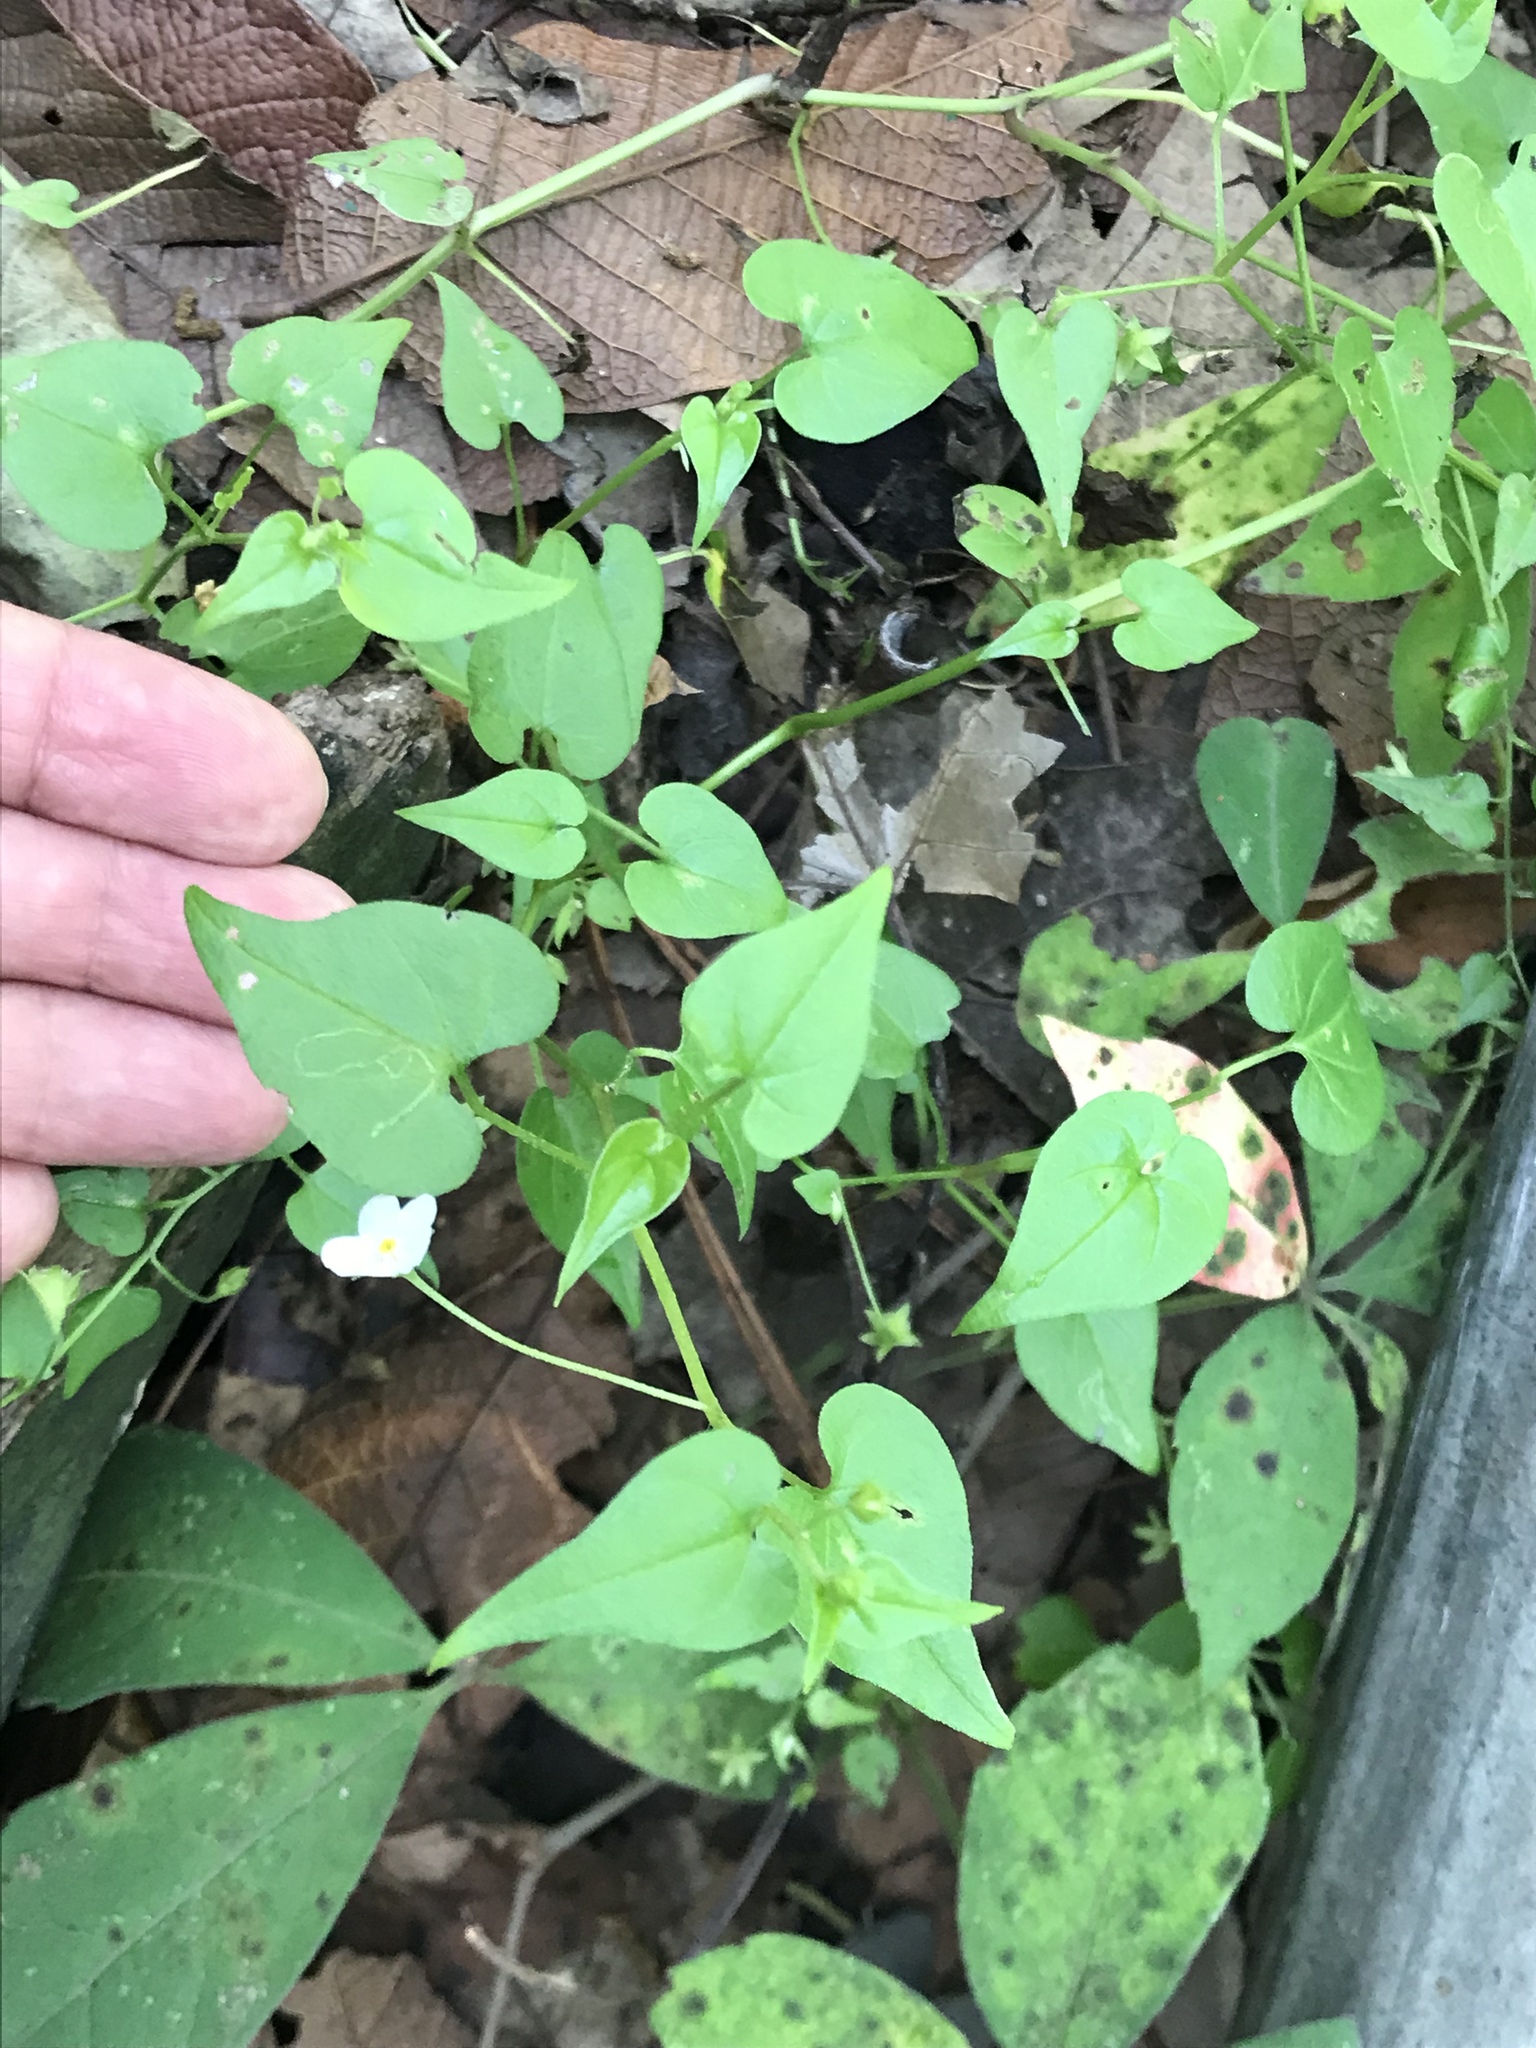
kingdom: Plantae
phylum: Tracheophyta
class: Magnoliopsida
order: Boraginales
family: Boraginaceae
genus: Mimophytum
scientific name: Mimophytum alienum
